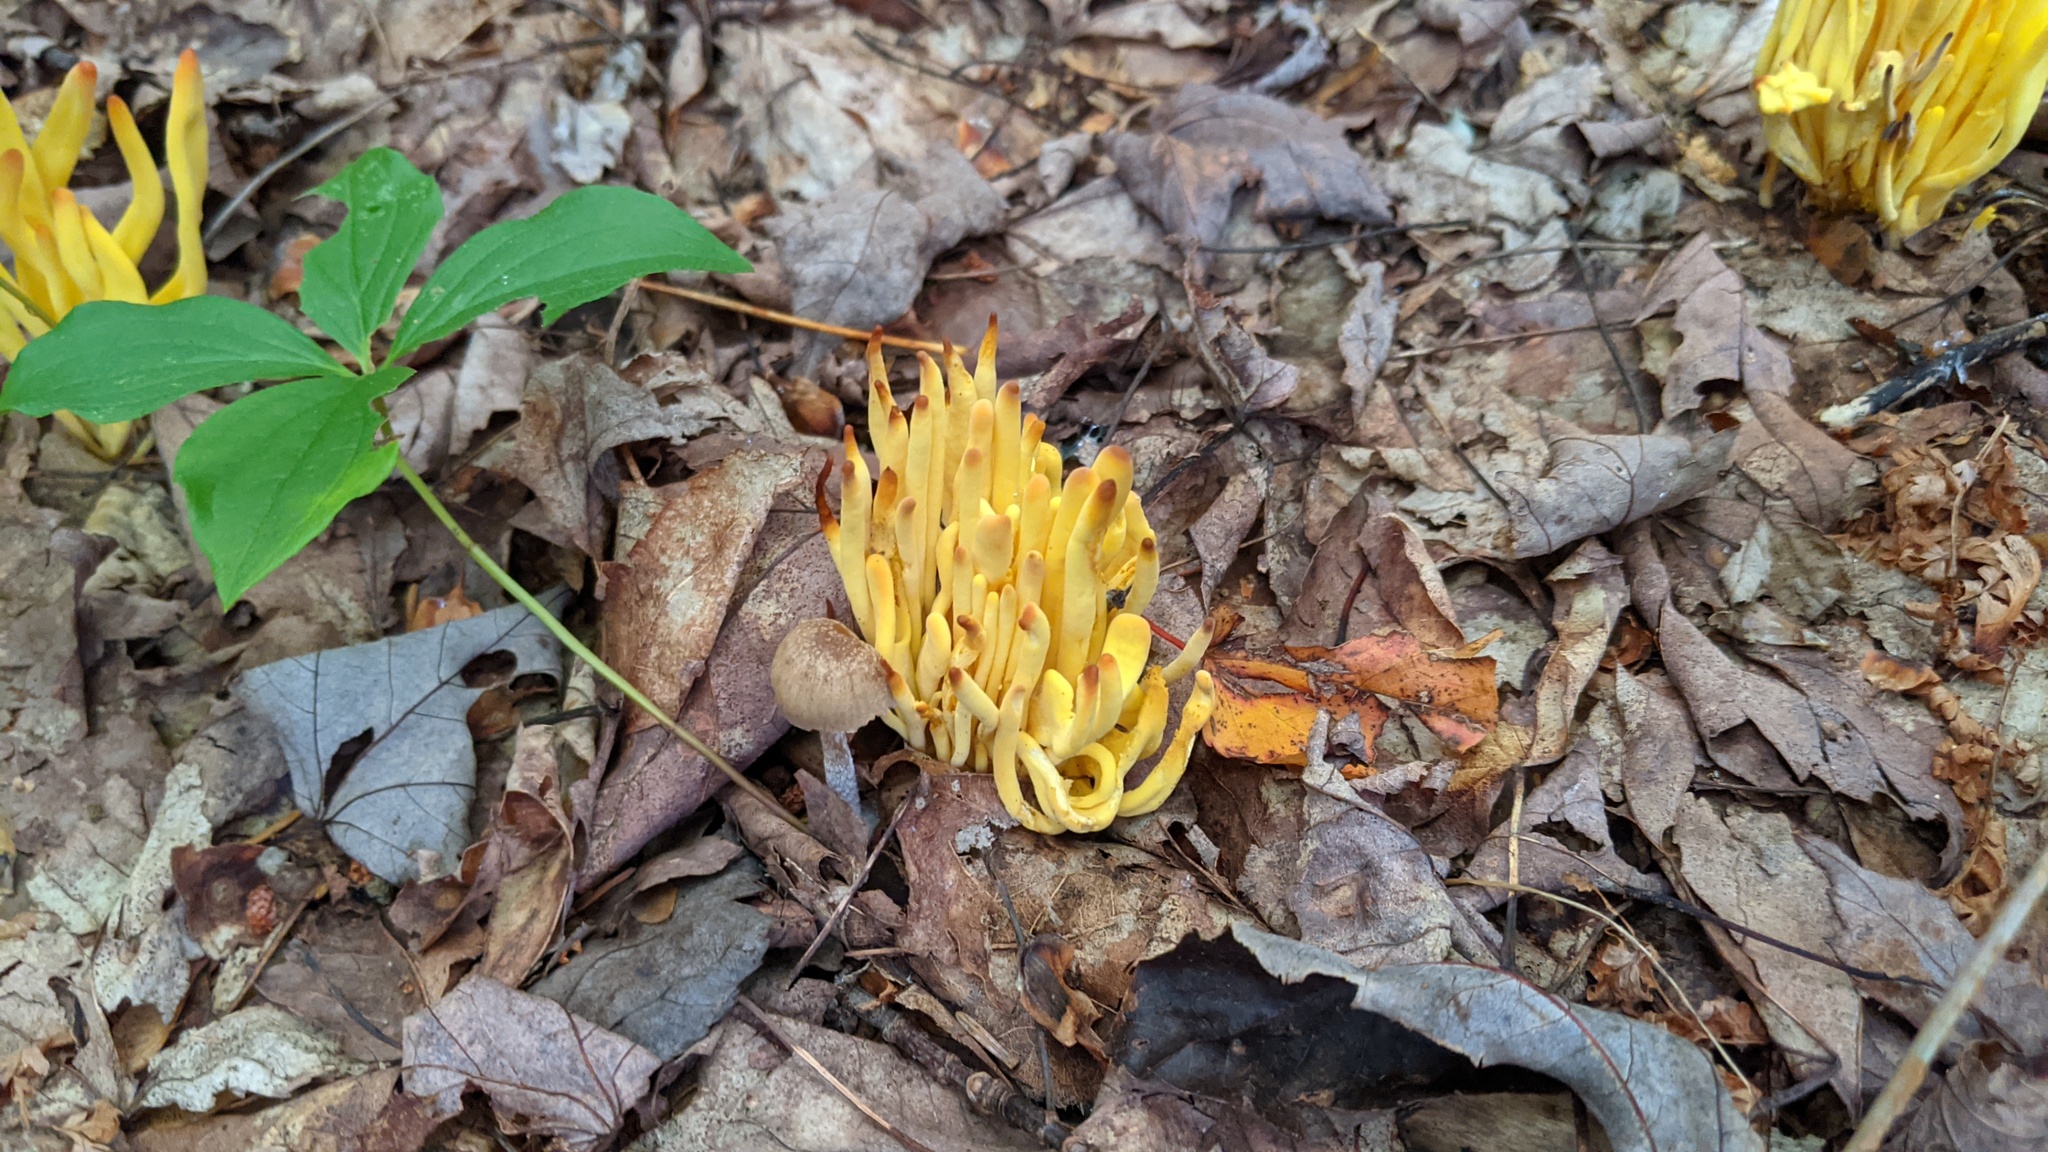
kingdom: Fungi
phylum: Basidiomycota
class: Agaricomycetes
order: Agaricales
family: Clavariaceae
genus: Clavulinopsis
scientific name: Clavulinopsis fusiformis
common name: Golden spindles
